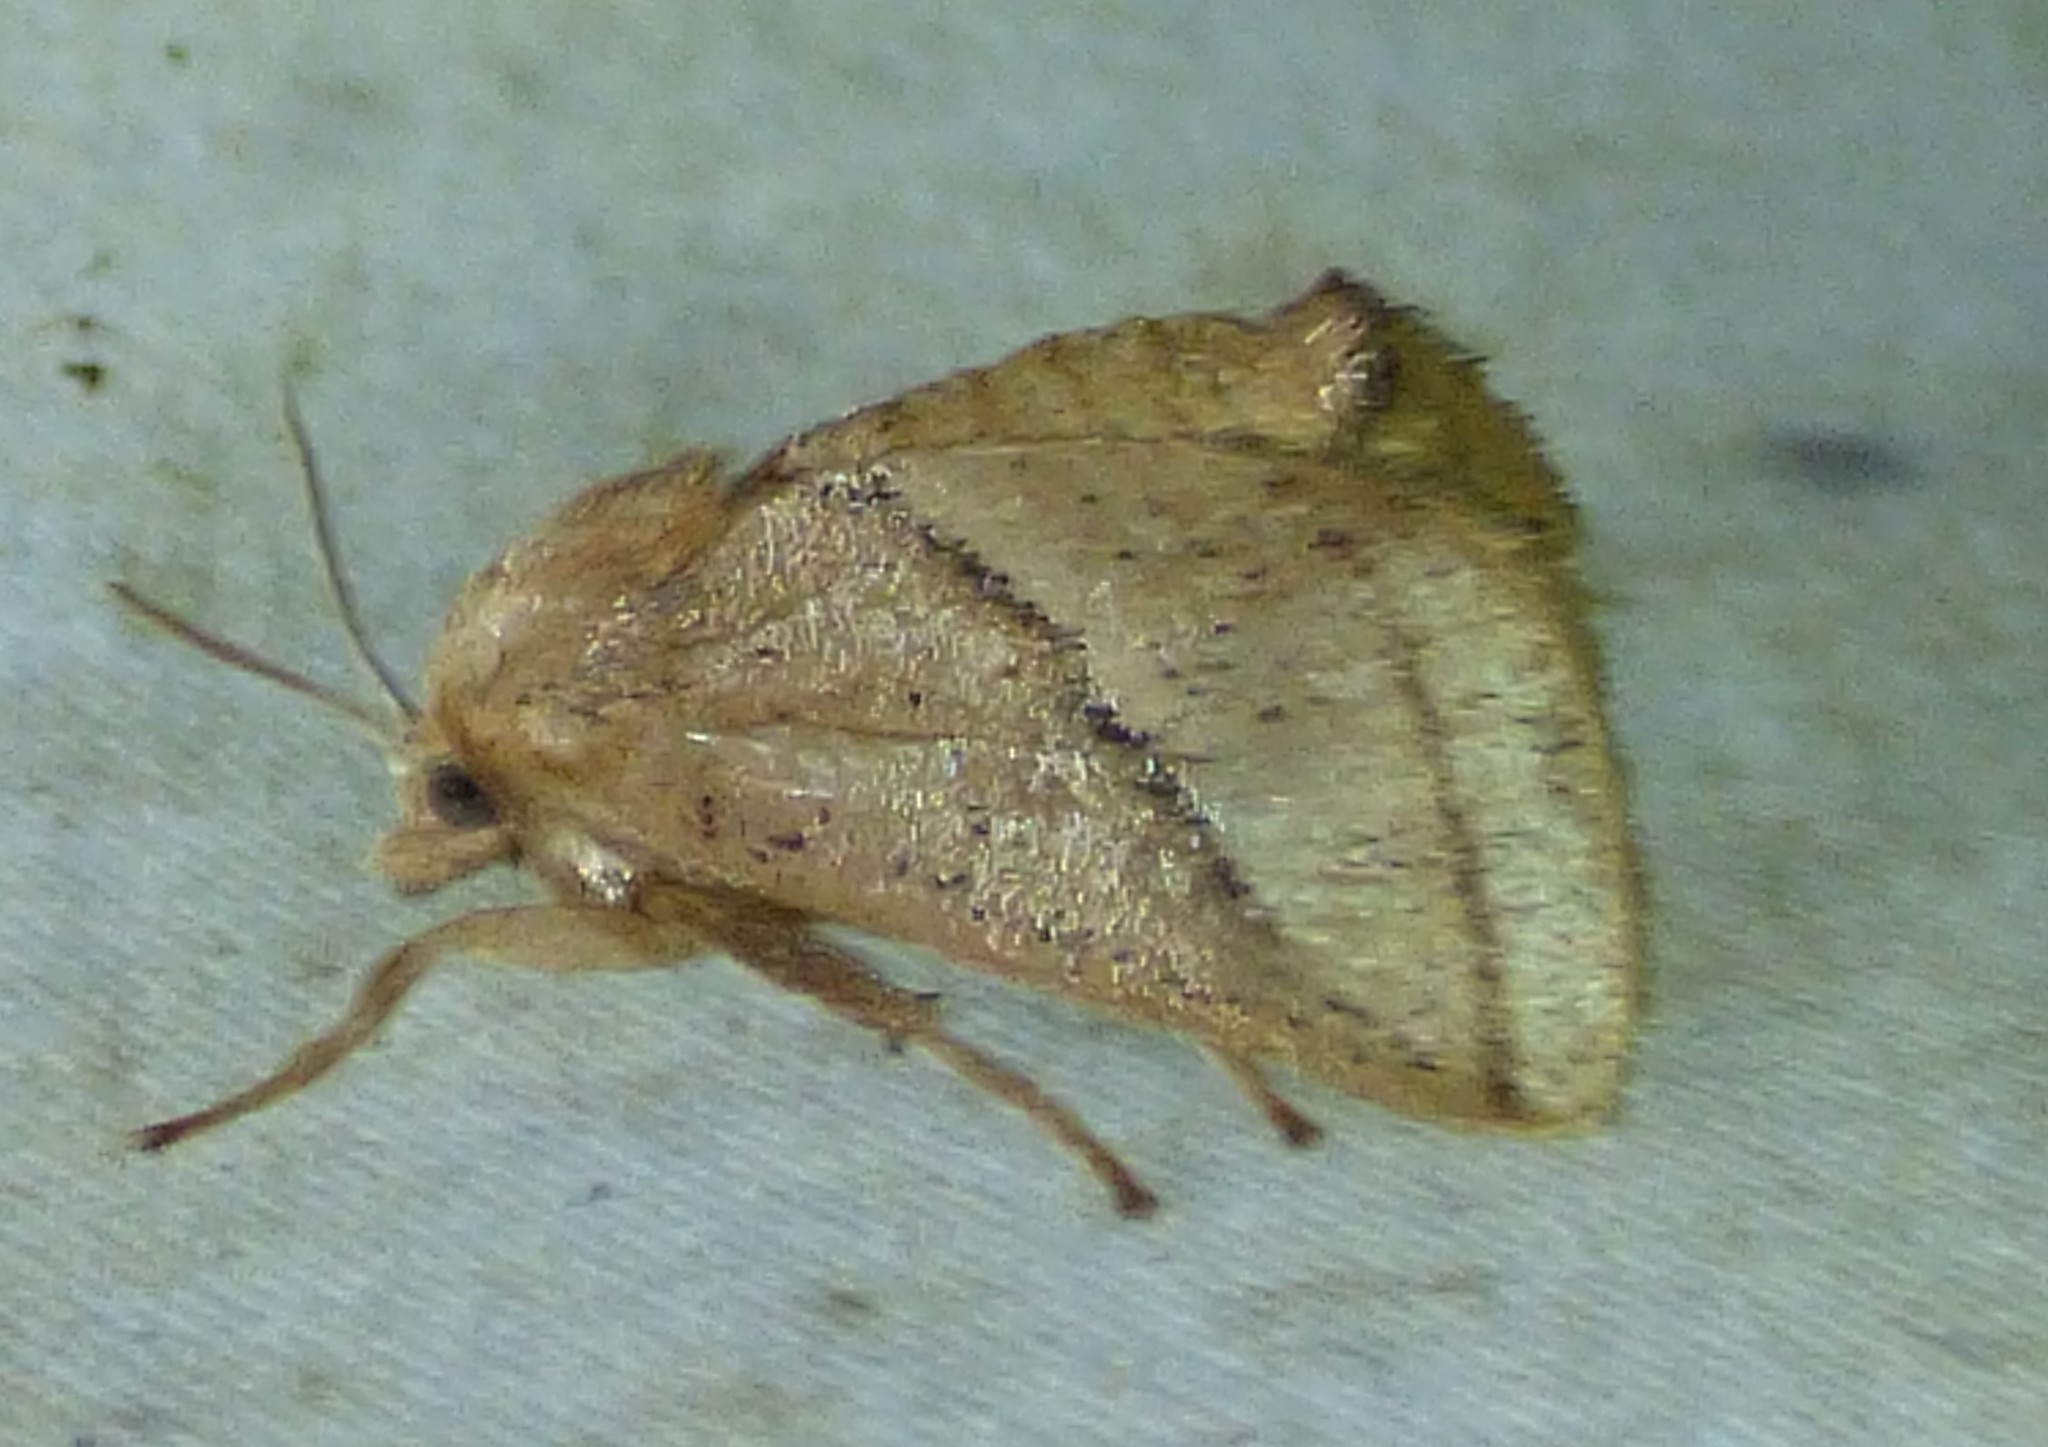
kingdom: Animalia
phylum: Arthropoda
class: Insecta
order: Lepidoptera
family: Limacodidae
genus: Natada
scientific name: Natada nasoni
